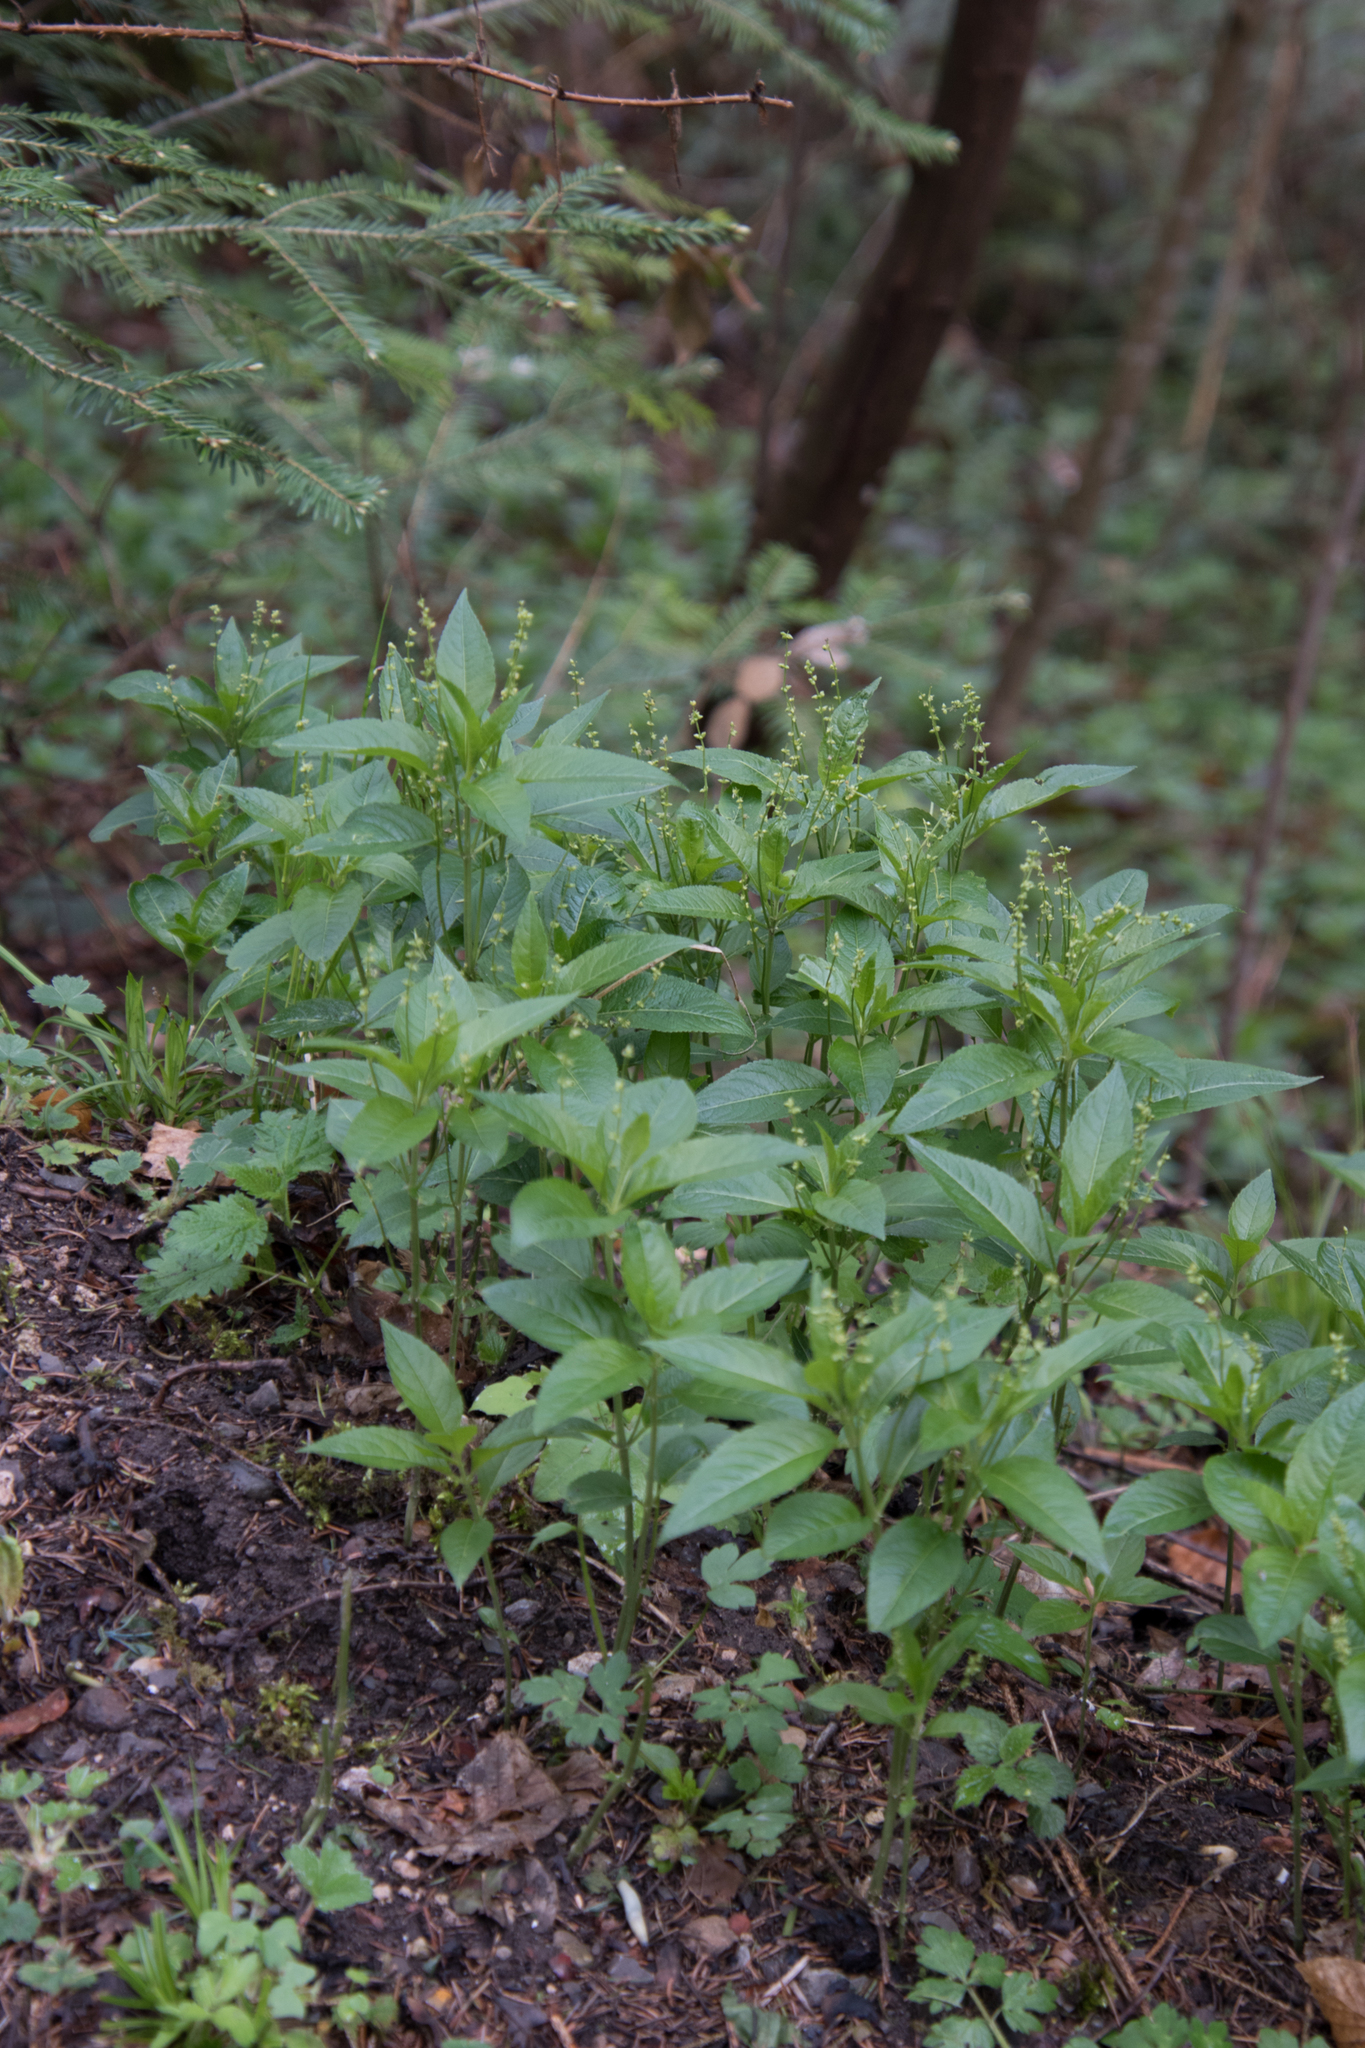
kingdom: Plantae
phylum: Tracheophyta
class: Magnoliopsida
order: Malpighiales
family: Euphorbiaceae
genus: Mercurialis
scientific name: Mercurialis perennis
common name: Dog mercury
